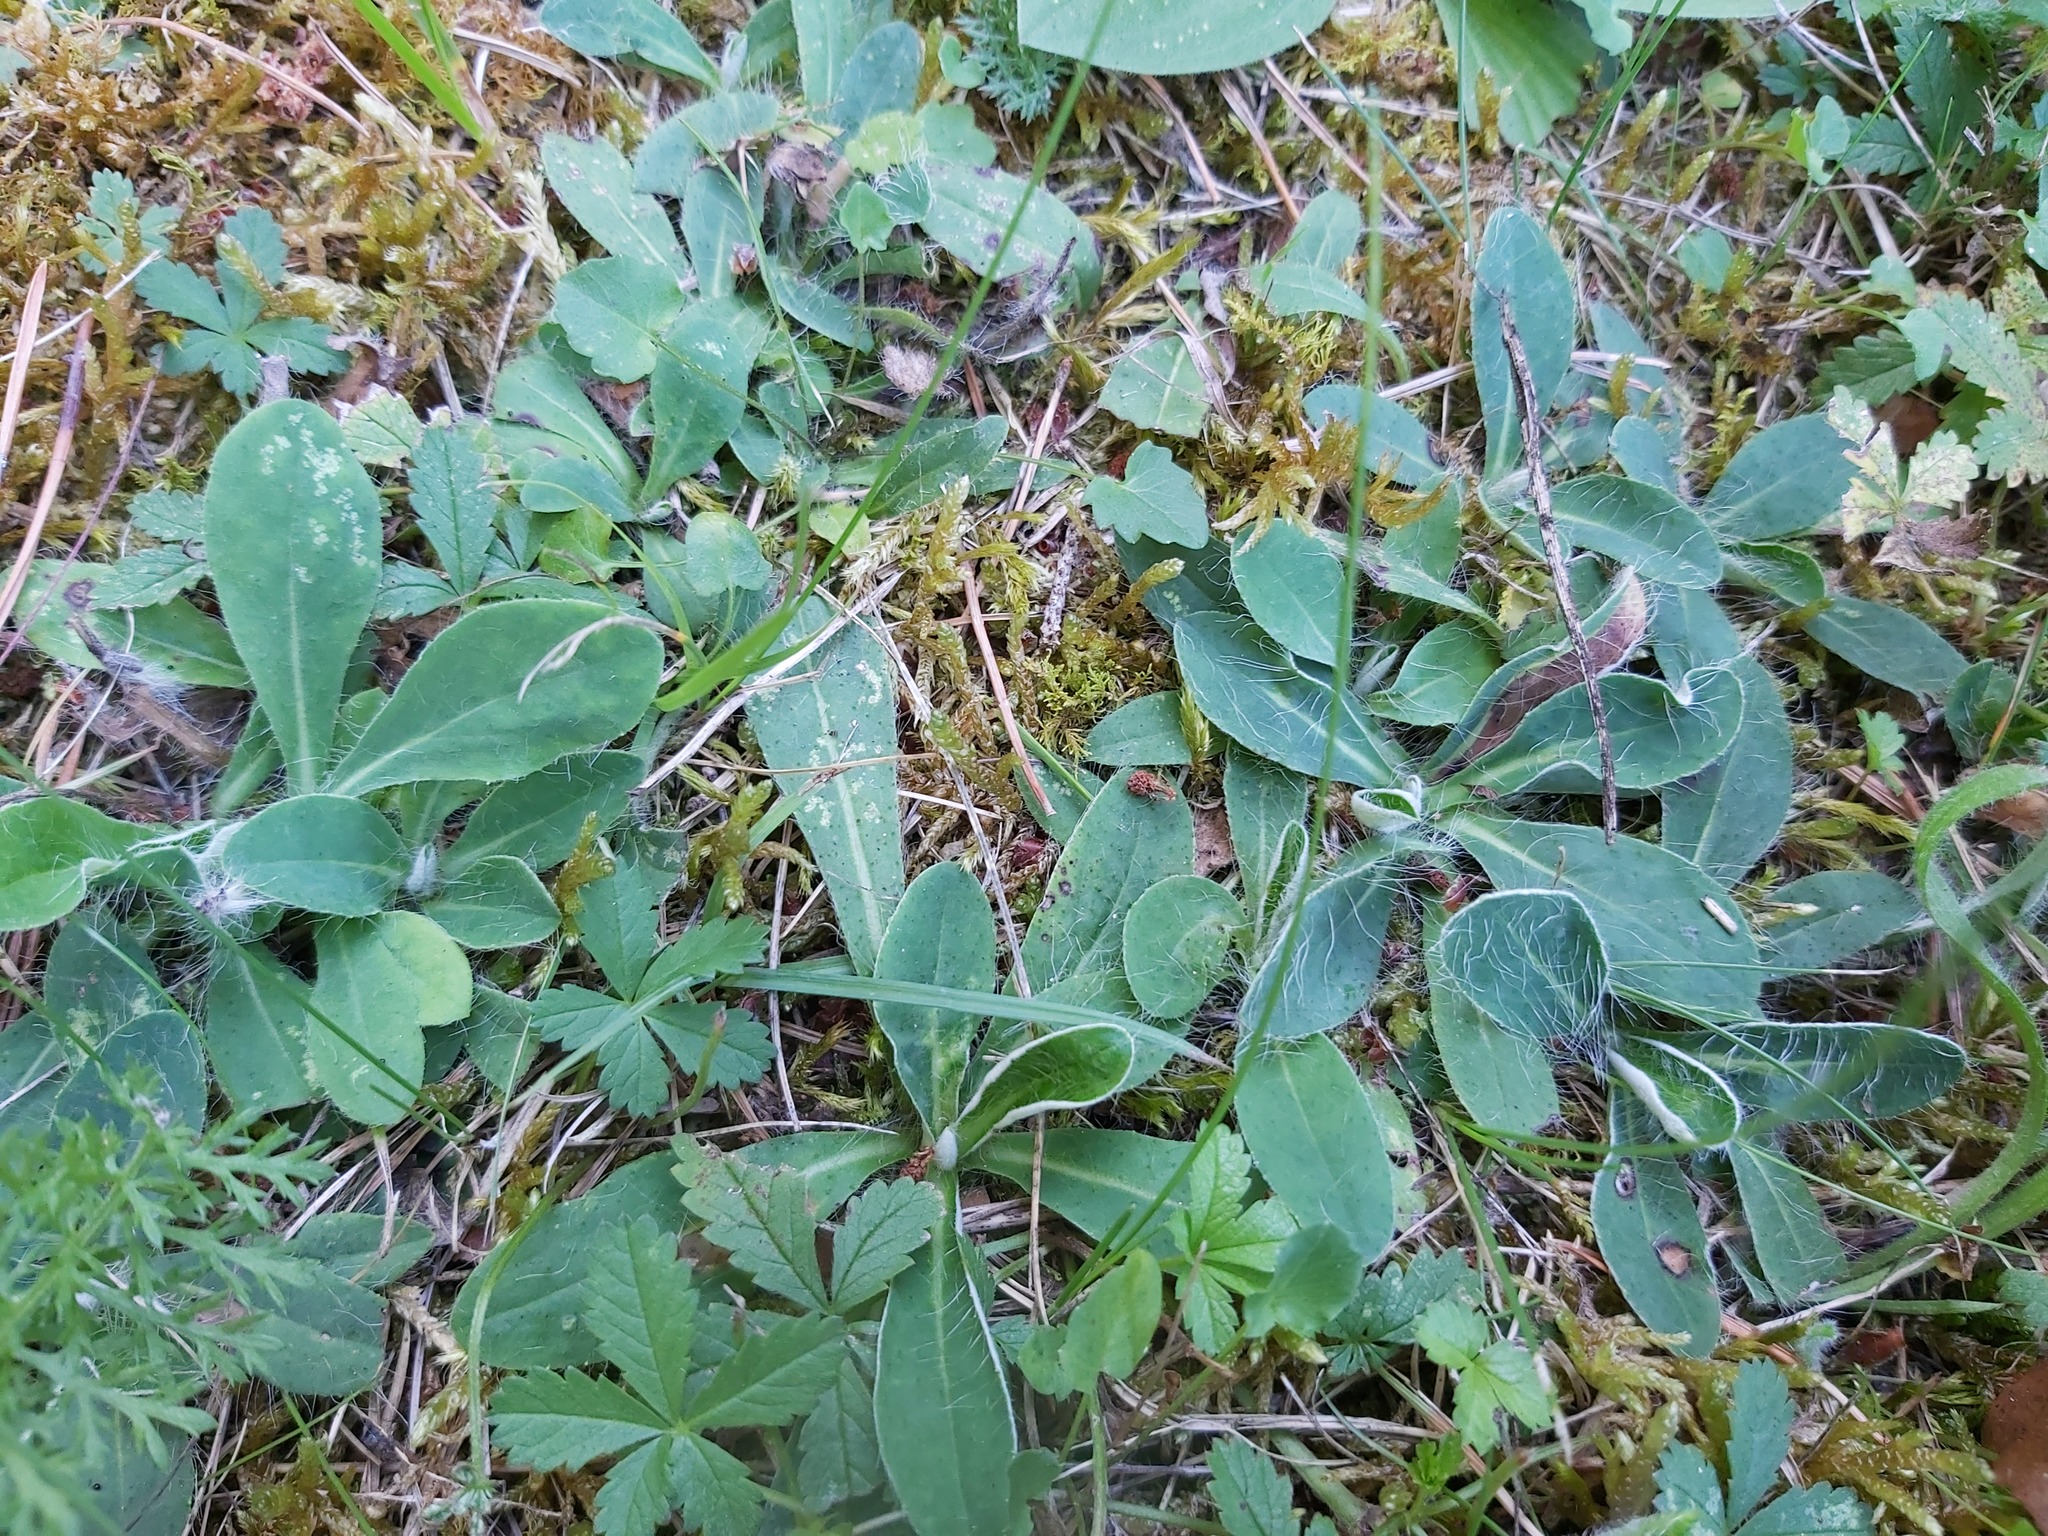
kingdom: Plantae
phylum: Tracheophyta
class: Magnoliopsida
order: Asterales
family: Asteraceae
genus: Pilosella
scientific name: Pilosella officinarum
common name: Mouse-ear hawkweed
